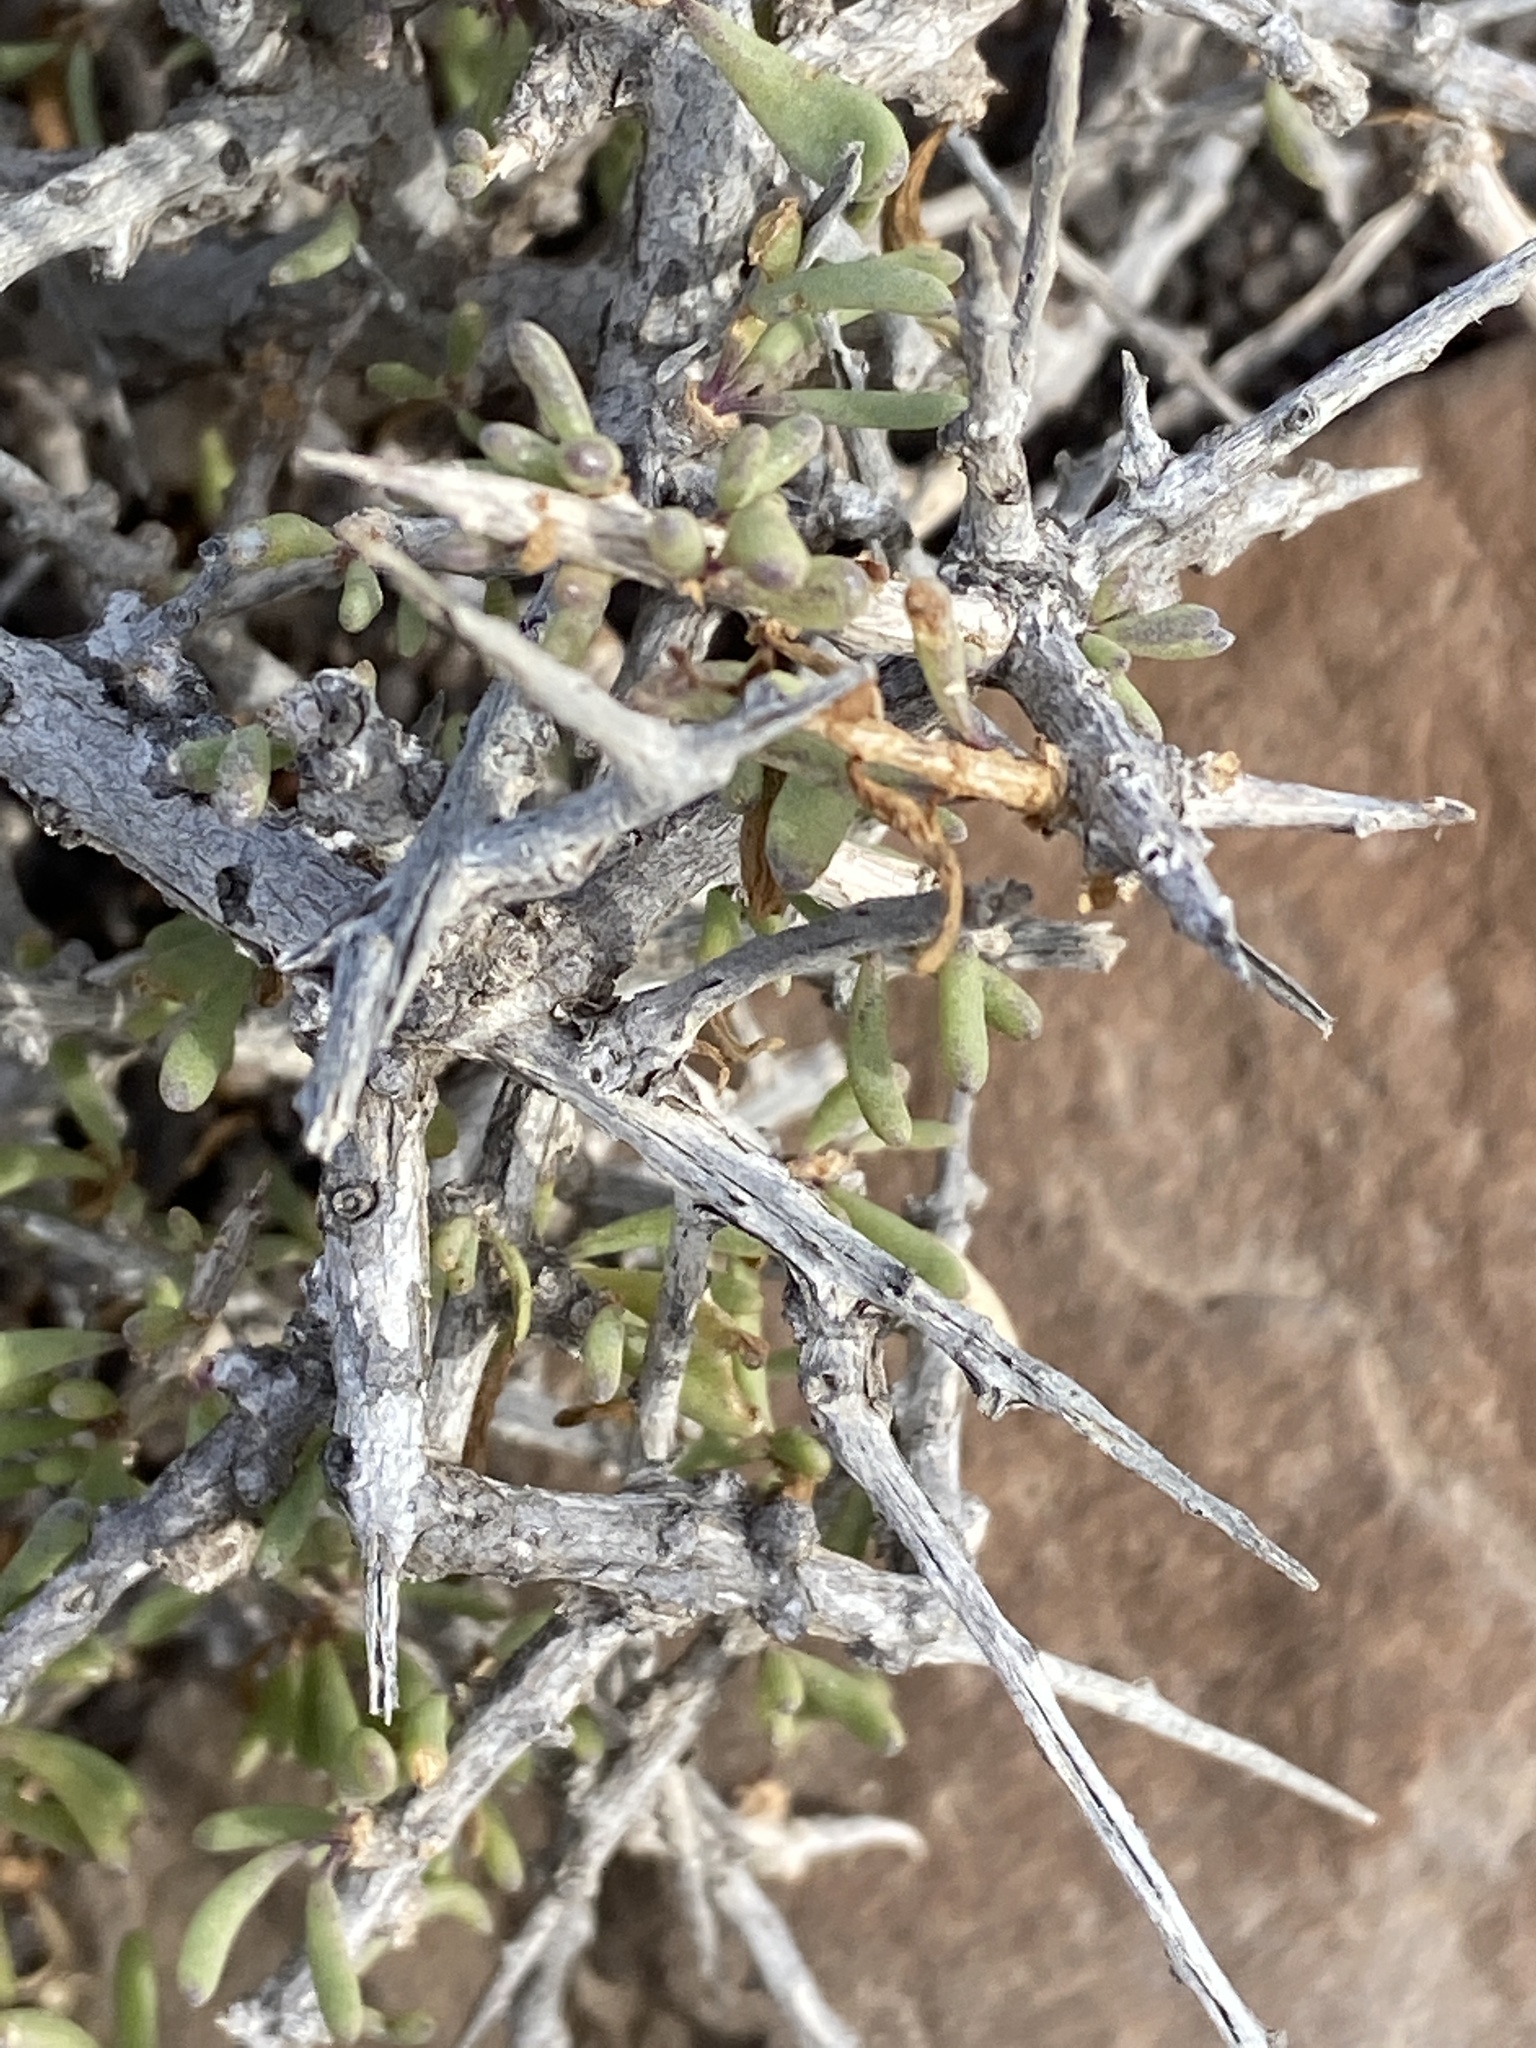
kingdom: Plantae
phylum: Tracheophyta
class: Magnoliopsida
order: Solanales
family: Solanaceae
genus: Lycium
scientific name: Lycium intricatum
